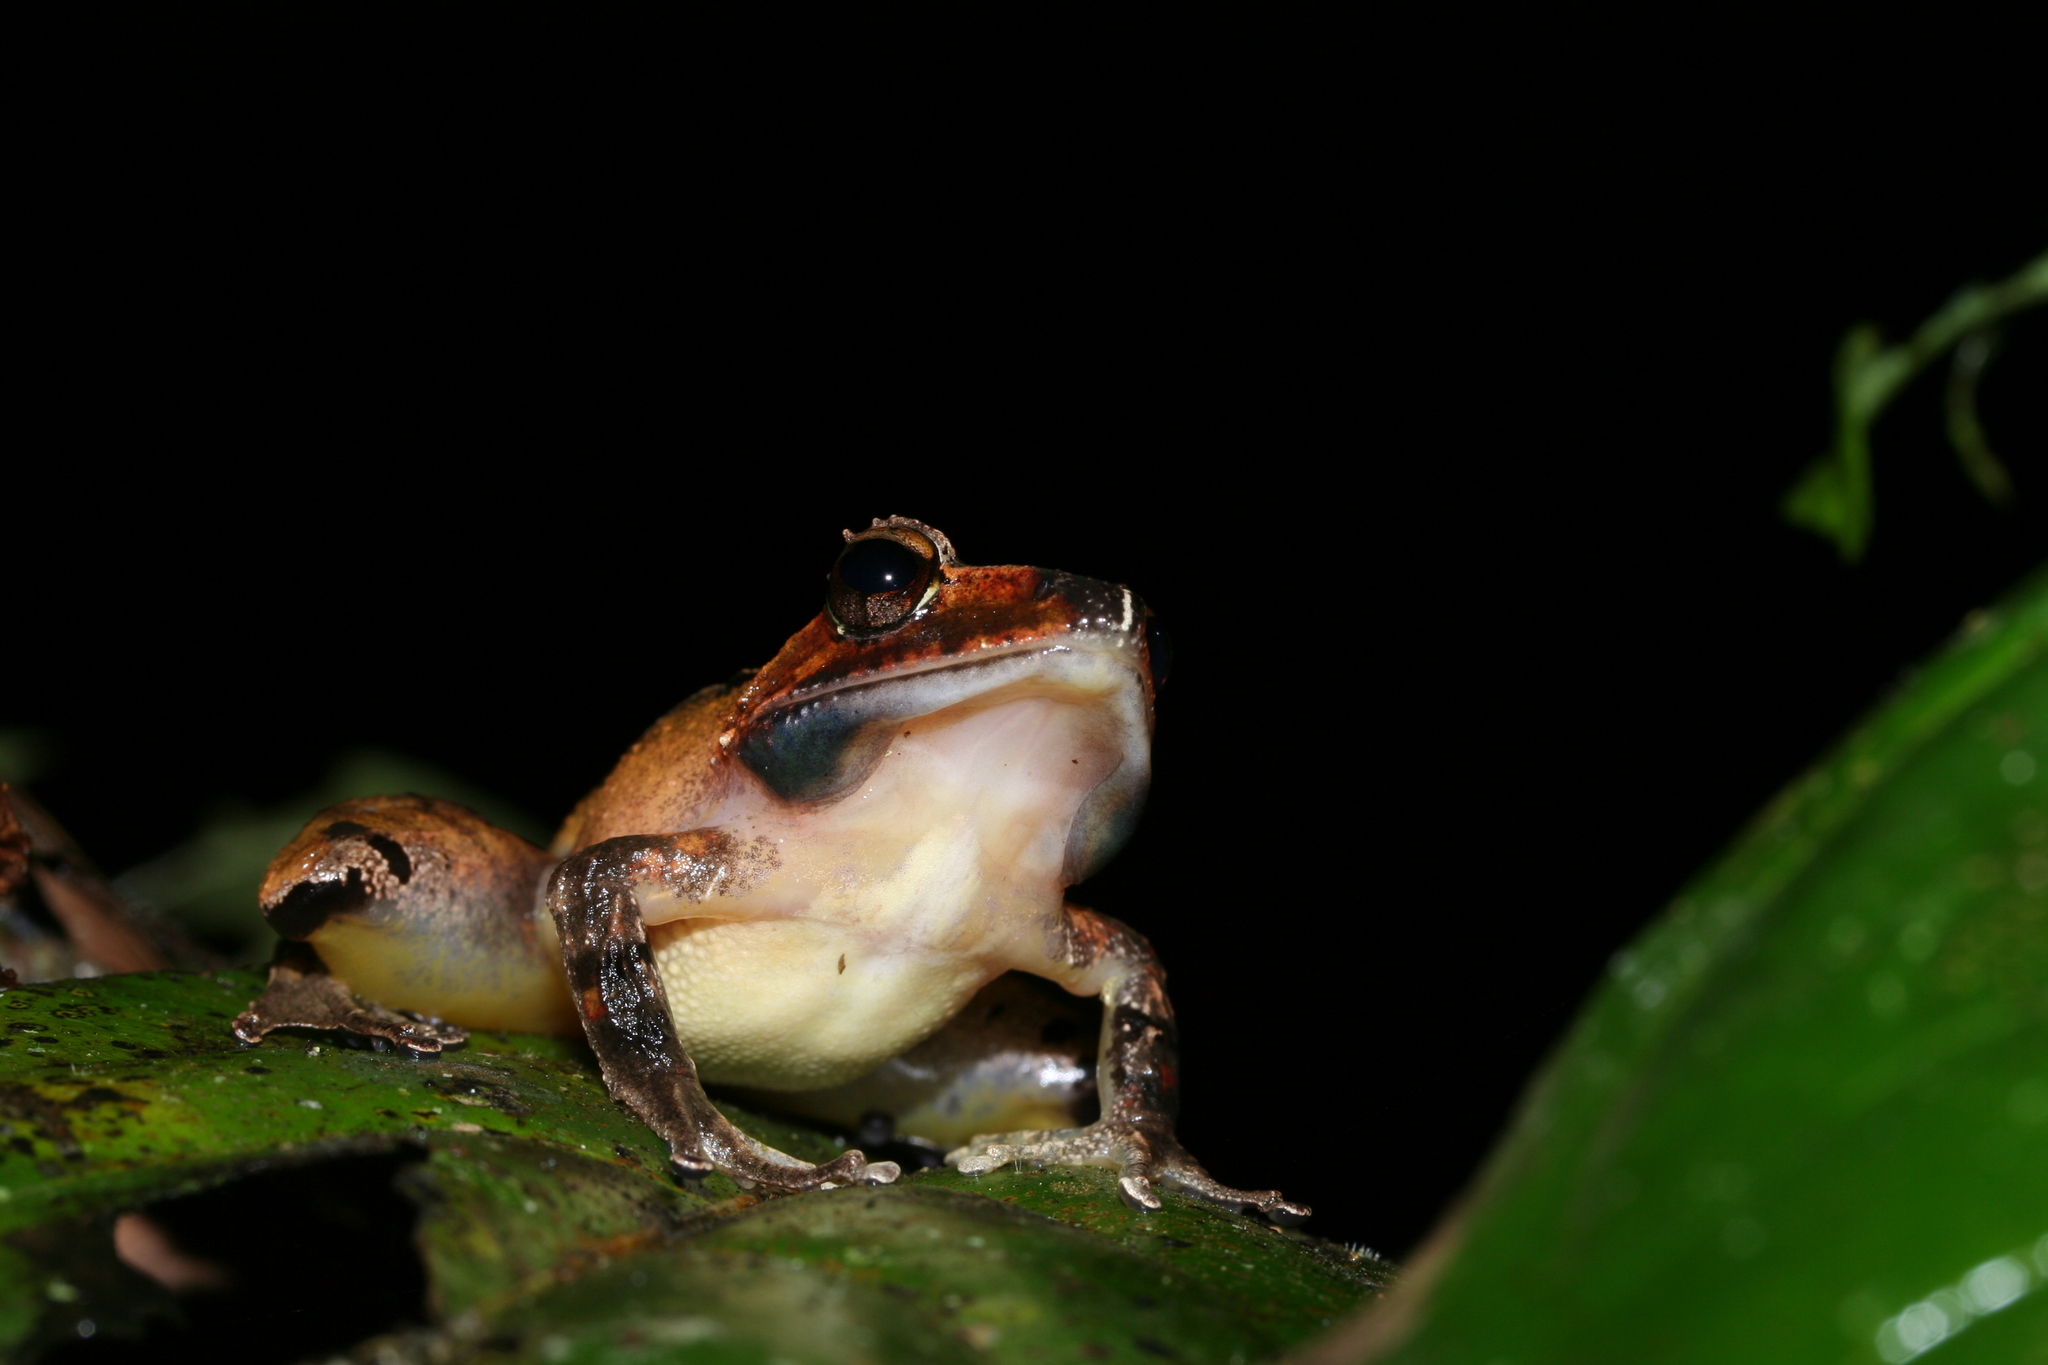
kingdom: Animalia
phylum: Chordata
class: Amphibia
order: Anura
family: Mantellidae
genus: Gephyromantis
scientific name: Gephyromantis plicifer
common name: Common madagascar frog
